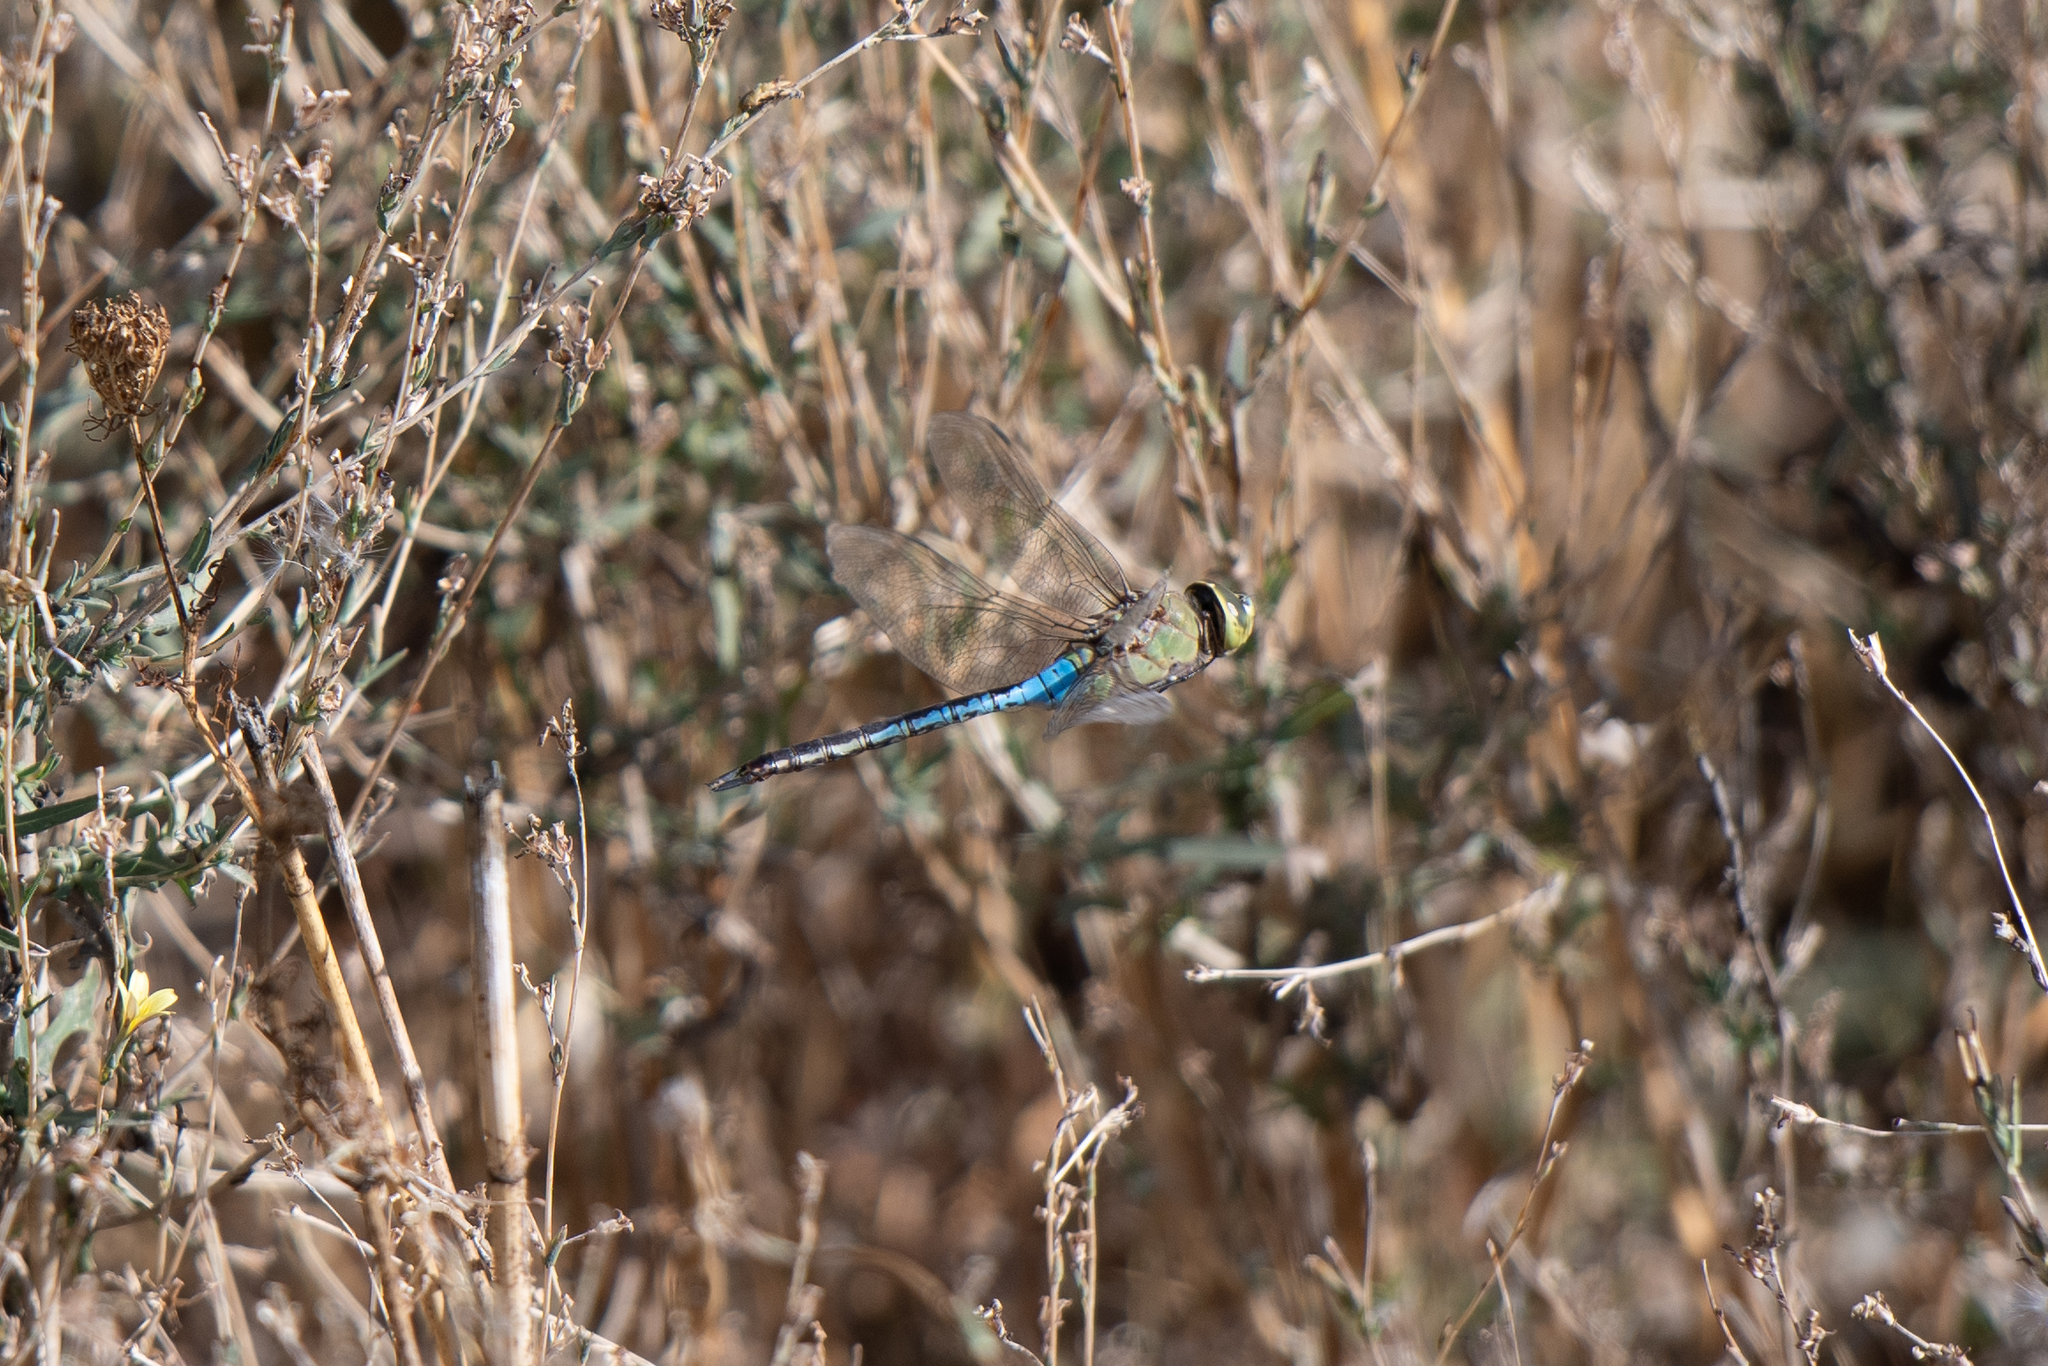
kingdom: Animalia
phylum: Arthropoda
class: Insecta
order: Odonata
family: Aeshnidae
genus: Anax
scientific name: Anax junius
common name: Common green darner
